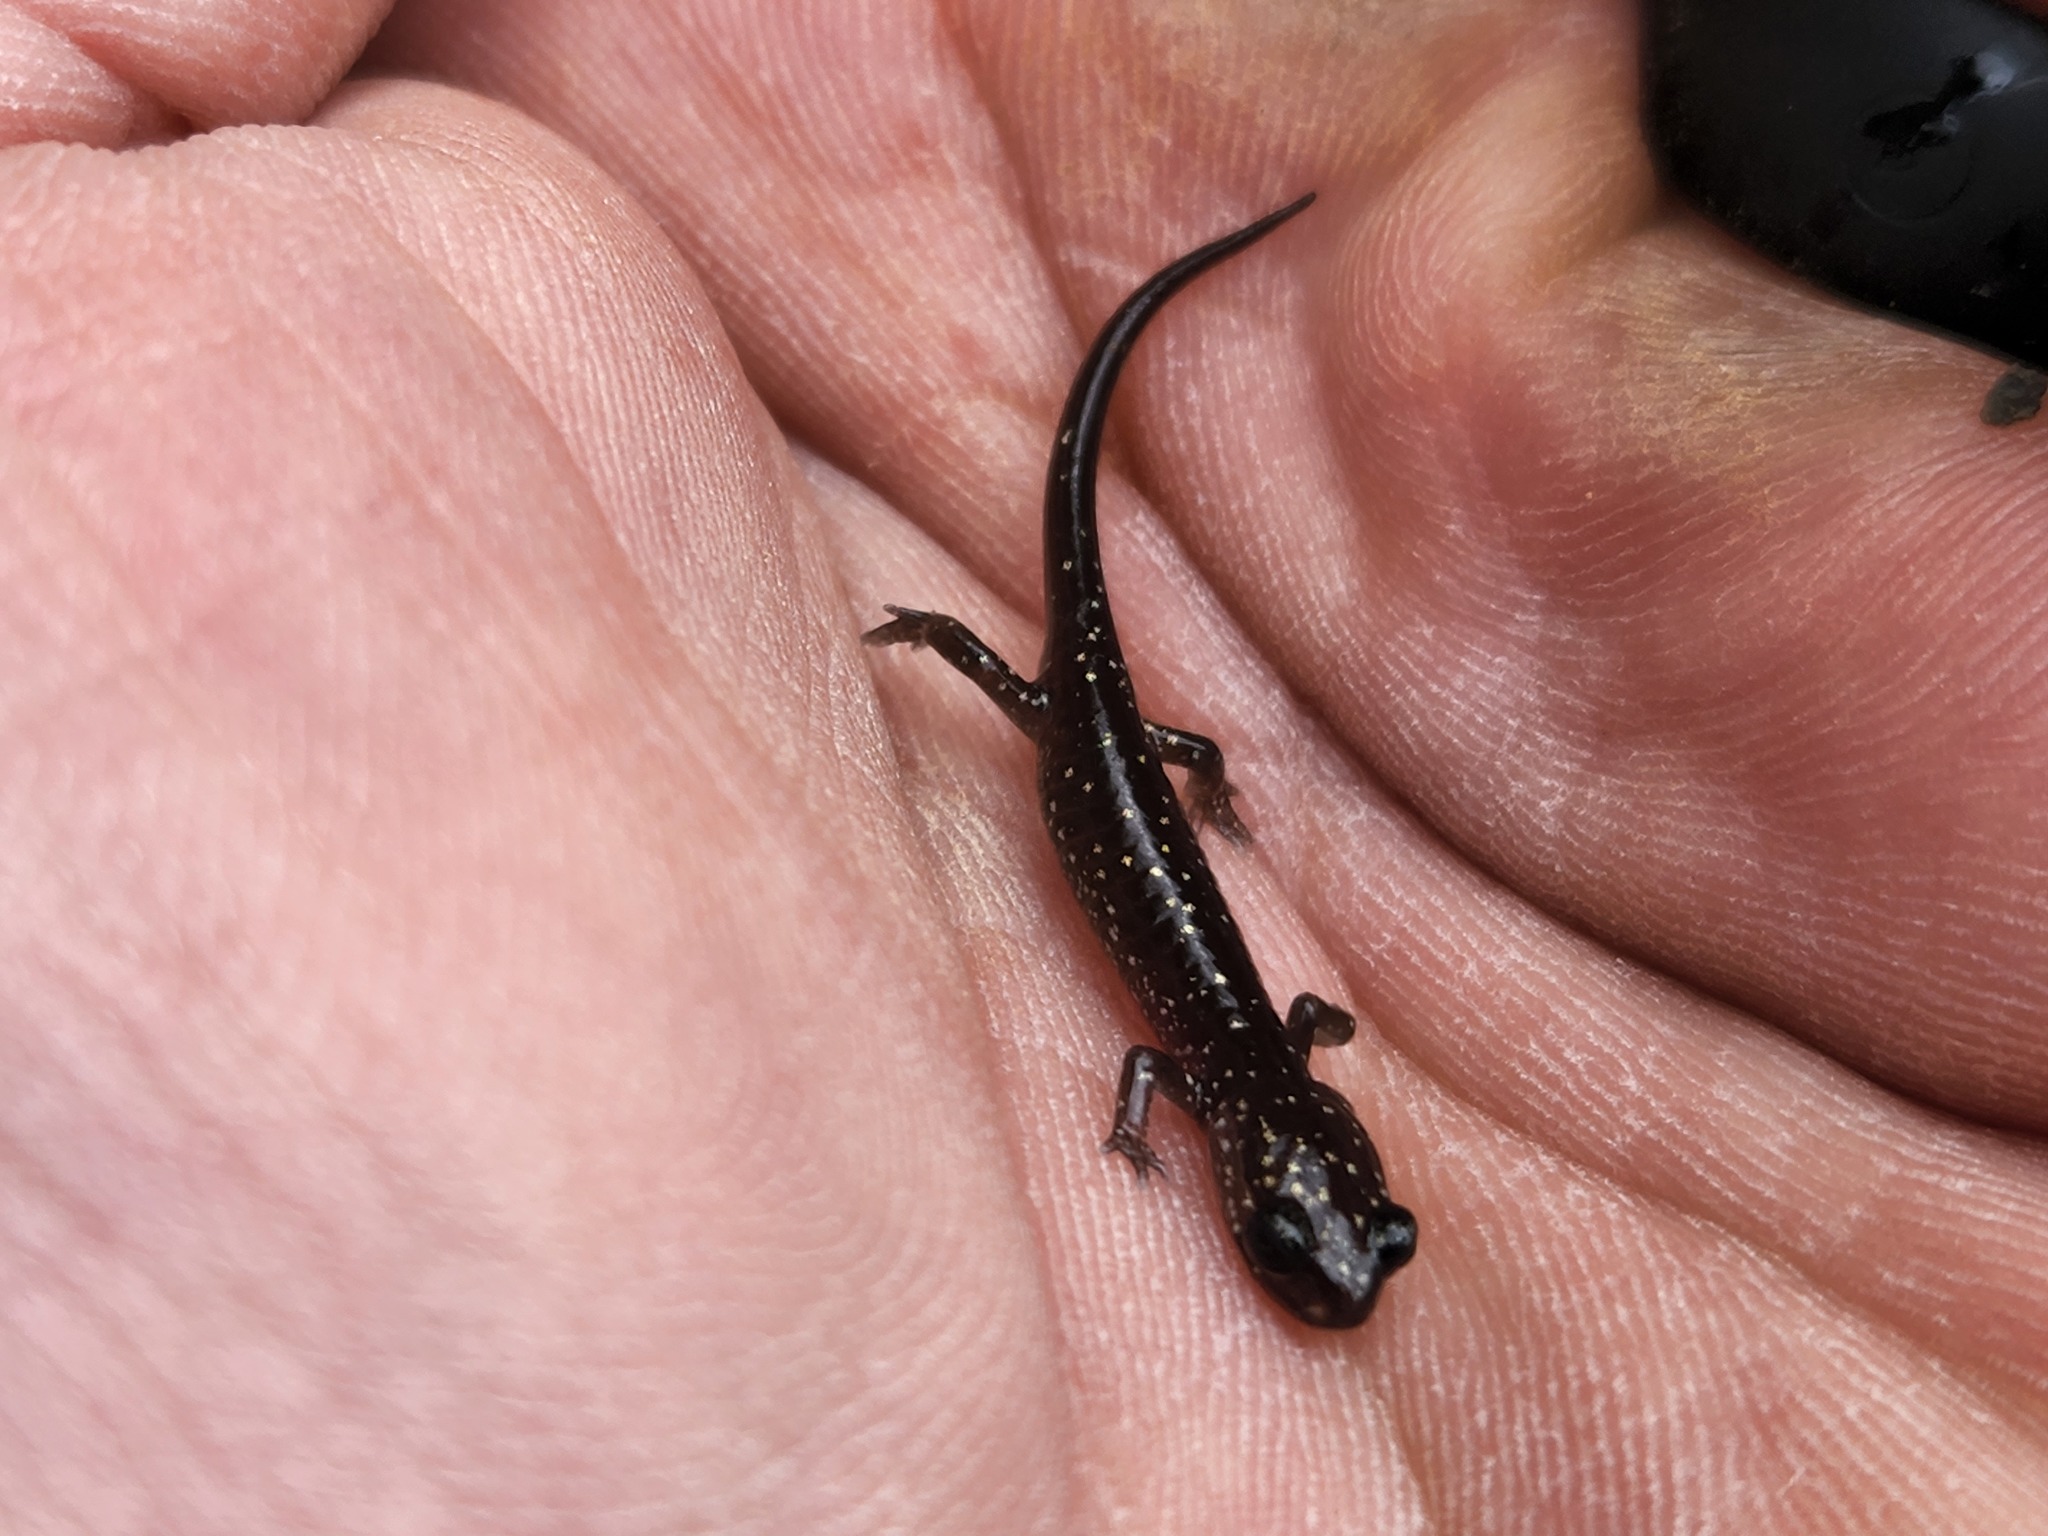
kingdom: Animalia
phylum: Chordata
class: Amphibia
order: Caudata
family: Plethodontidae
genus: Plethodon
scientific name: Plethodon glutinosus
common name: Northern slimy salamander
